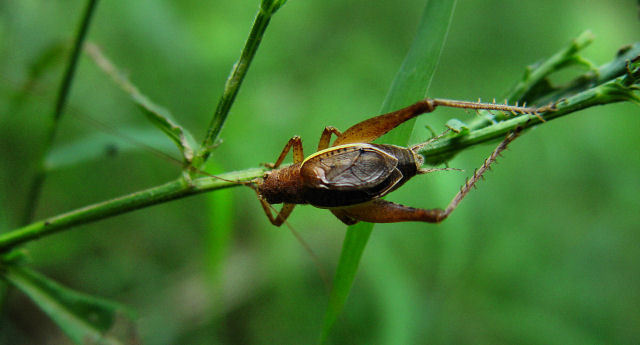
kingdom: Animalia
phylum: Arthropoda
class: Insecta
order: Orthoptera
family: Gryllidae
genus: Hapithus
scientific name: Hapithus agitator
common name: Restless bush cricket
